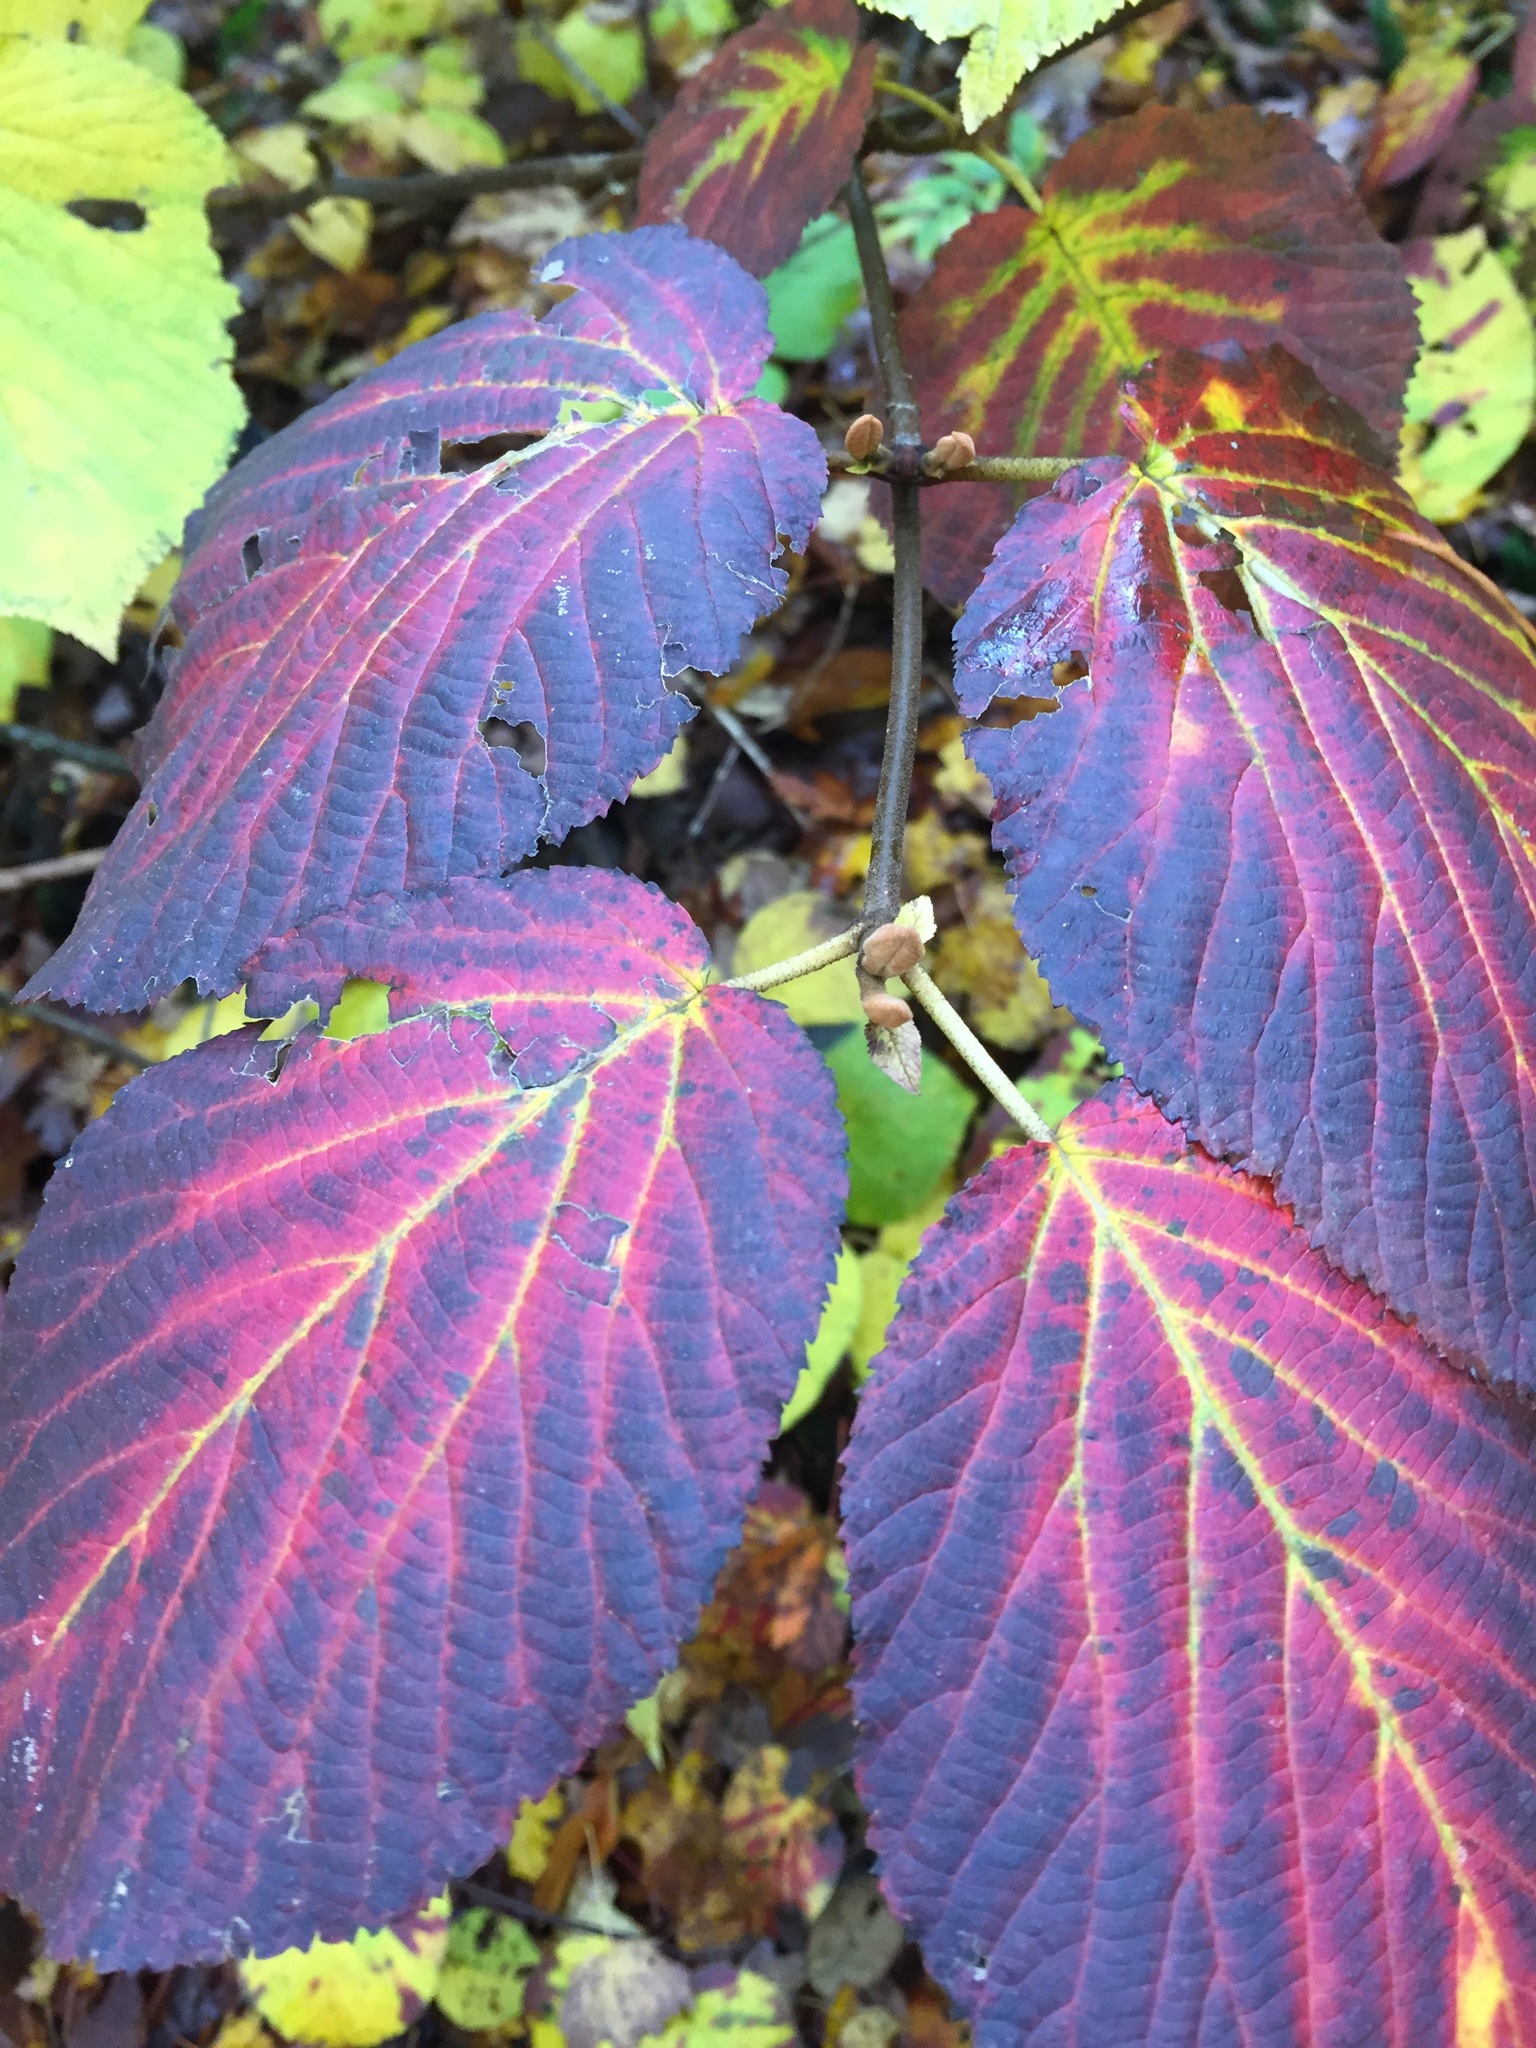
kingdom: Plantae
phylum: Tracheophyta
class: Magnoliopsida
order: Dipsacales
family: Viburnaceae
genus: Viburnum
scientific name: Viburnum lantanoides
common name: Hobblebush
